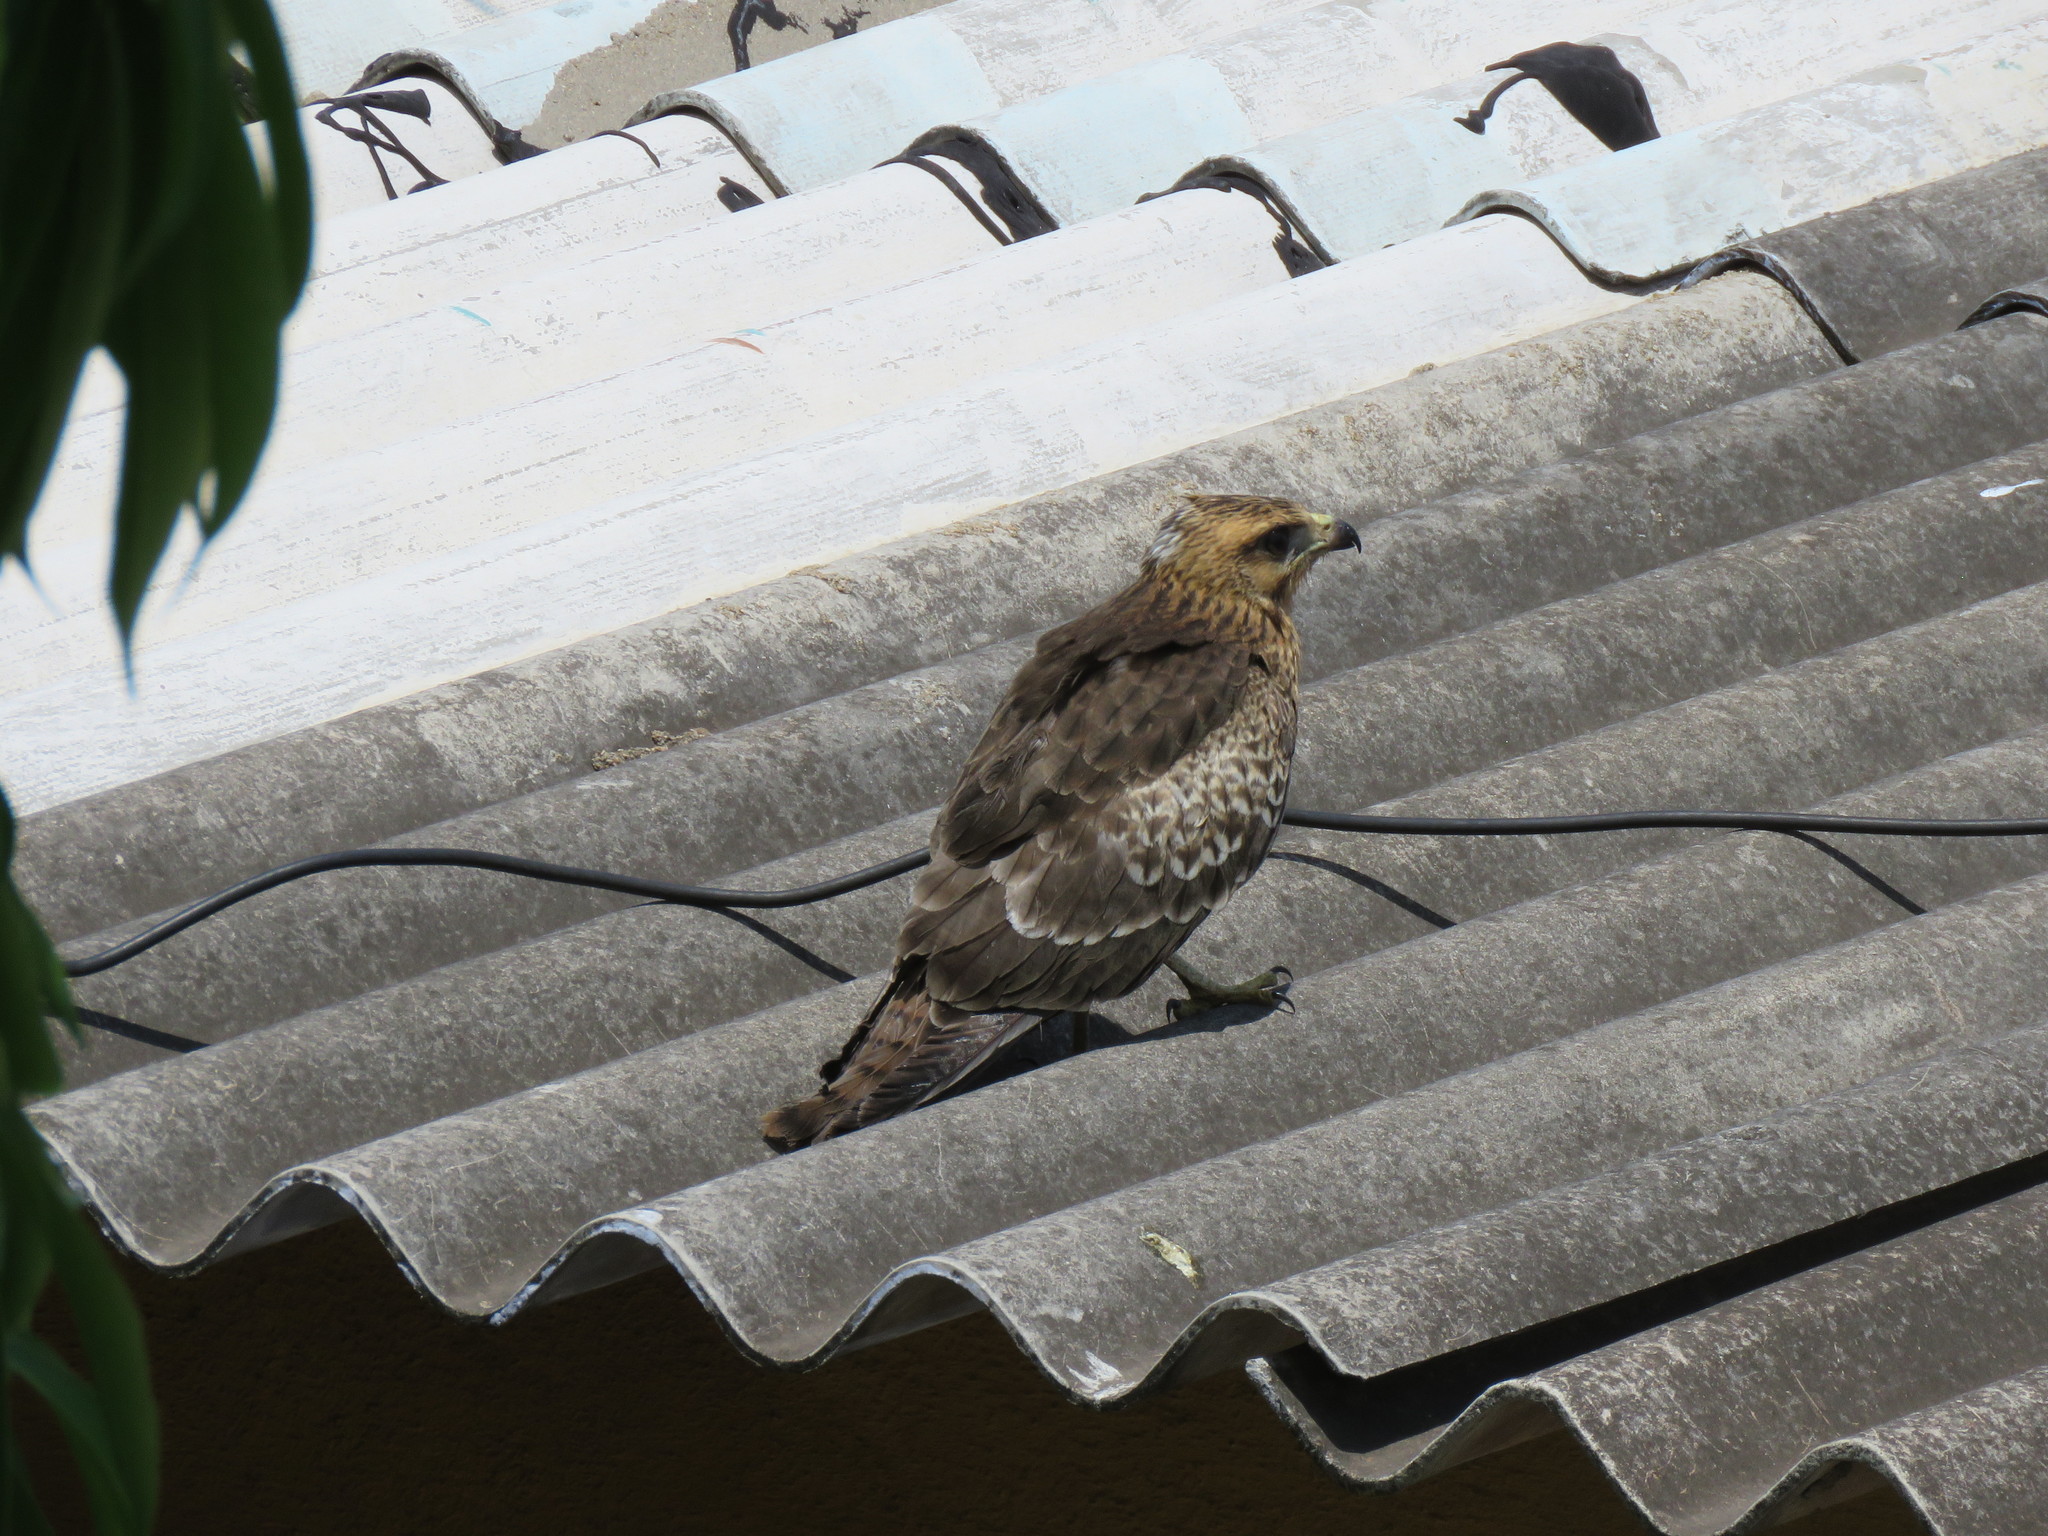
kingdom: Animalia
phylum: Chordata
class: Aves
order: Accipitriformes
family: Accipitridae
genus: Milvus
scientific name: Milvus migrans
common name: Black kite
